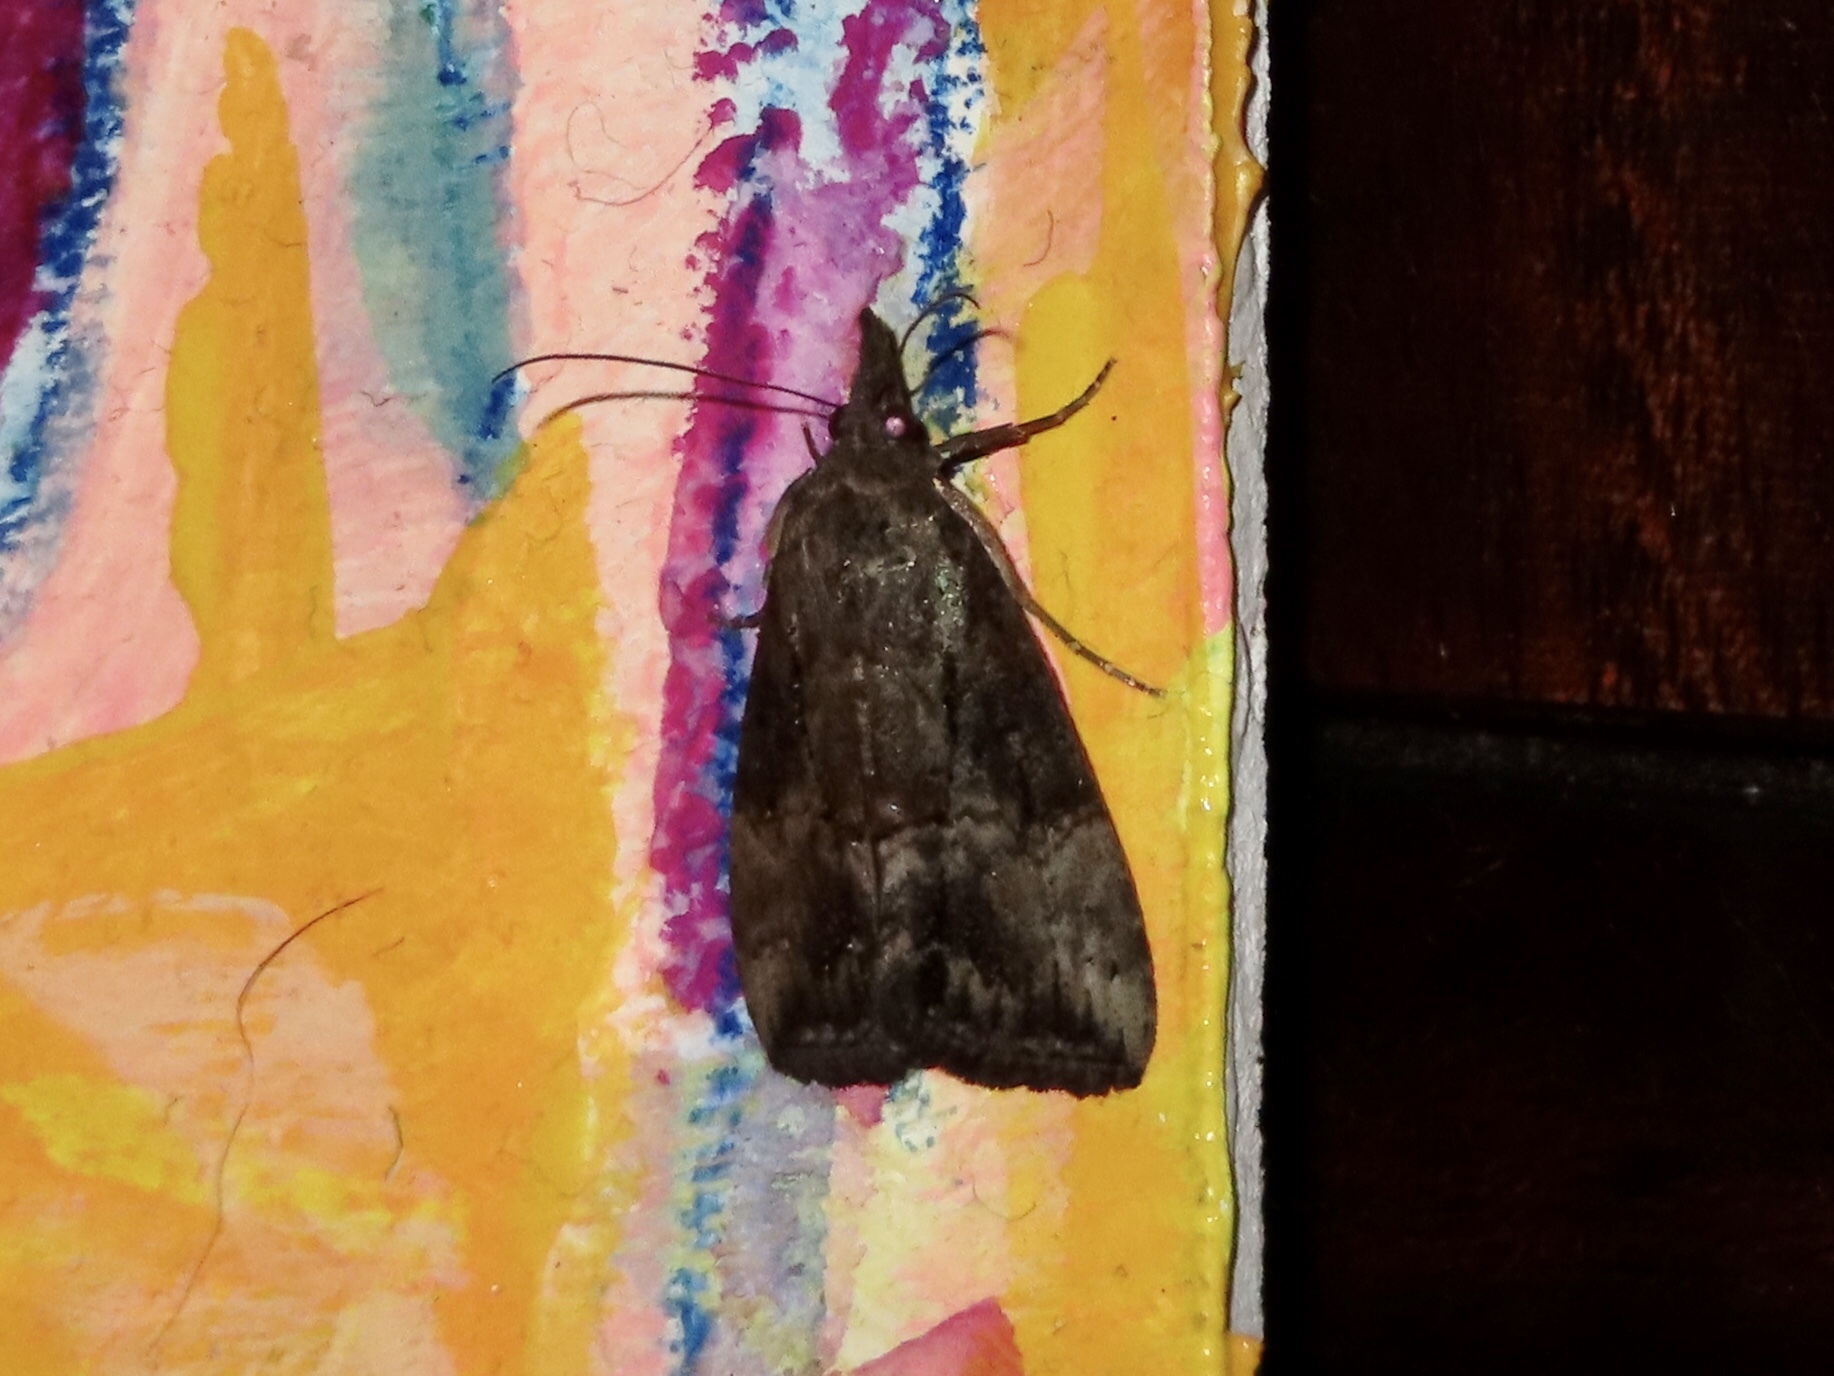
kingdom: Animalia
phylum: Arthropoda
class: Insecta
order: Lepidoptera
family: Erebidae
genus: Hypena
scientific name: Hypena scabra
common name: Green cloverworm
